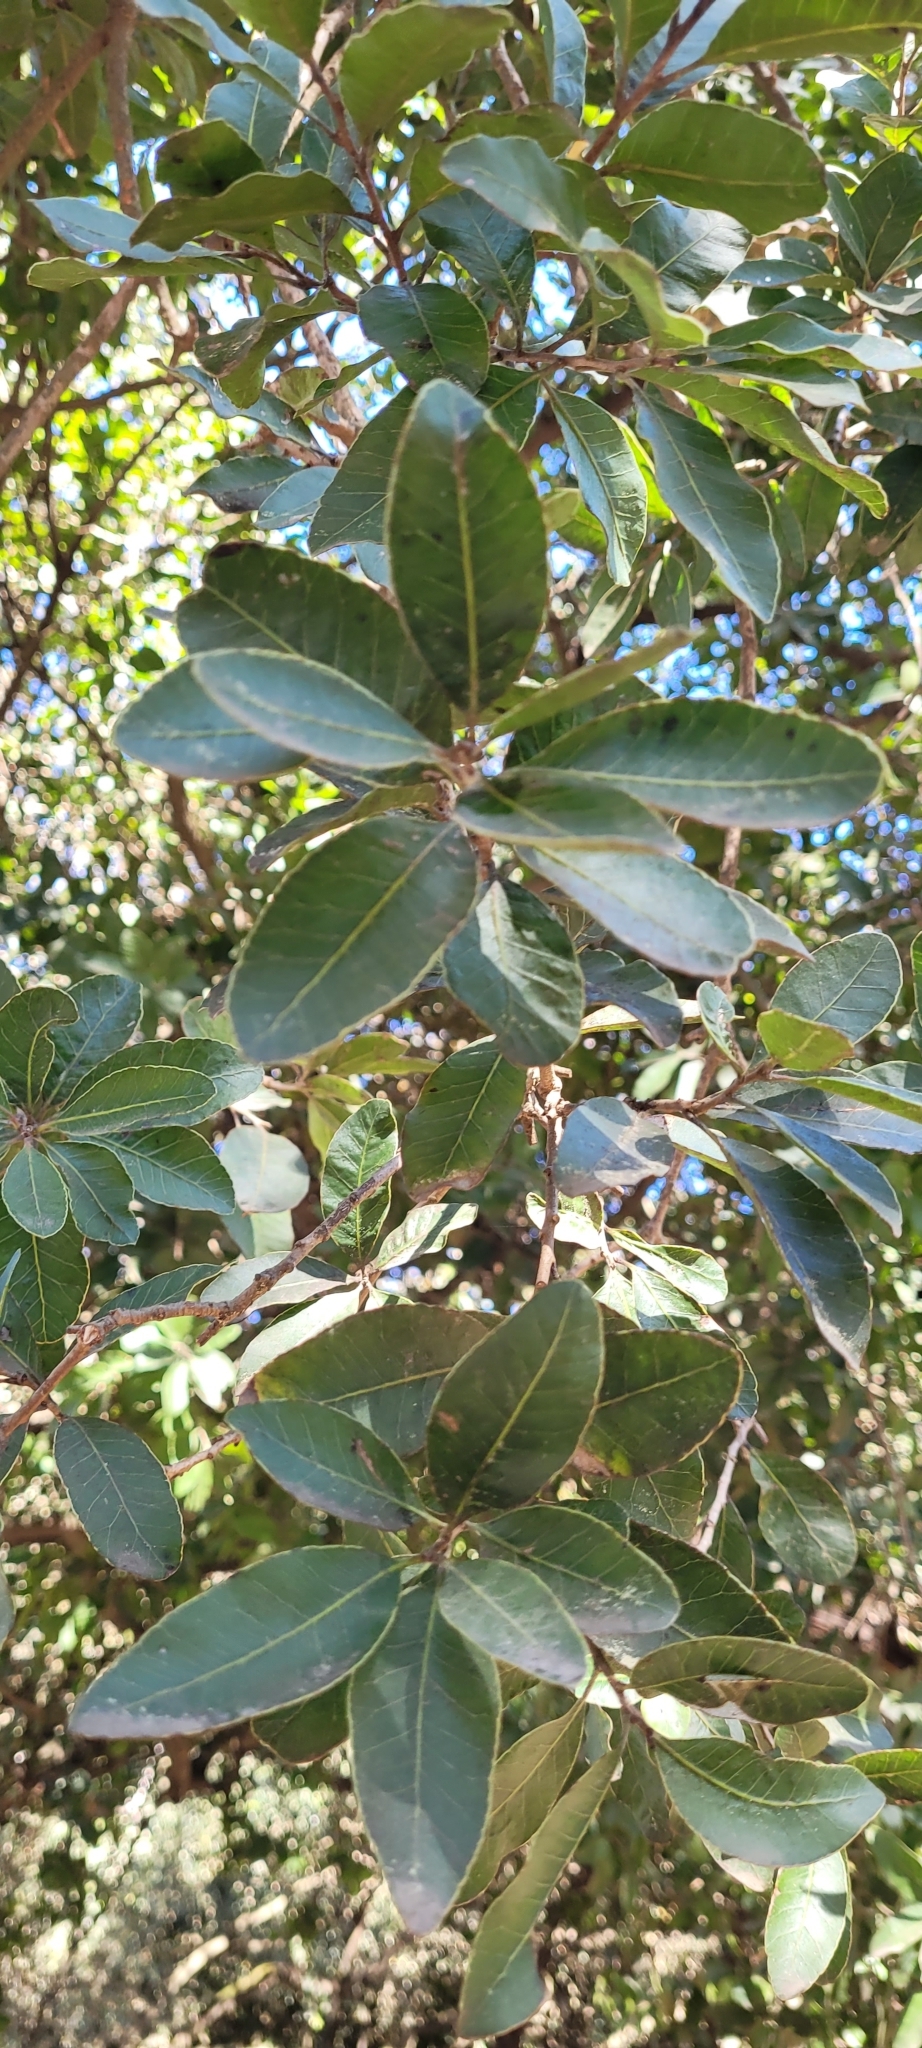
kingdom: Plantae
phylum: Tracheophyta
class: Magnoliopsida
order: Sapindales
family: Anacardiaceae
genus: Lithraea
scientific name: Lithraea caustica
